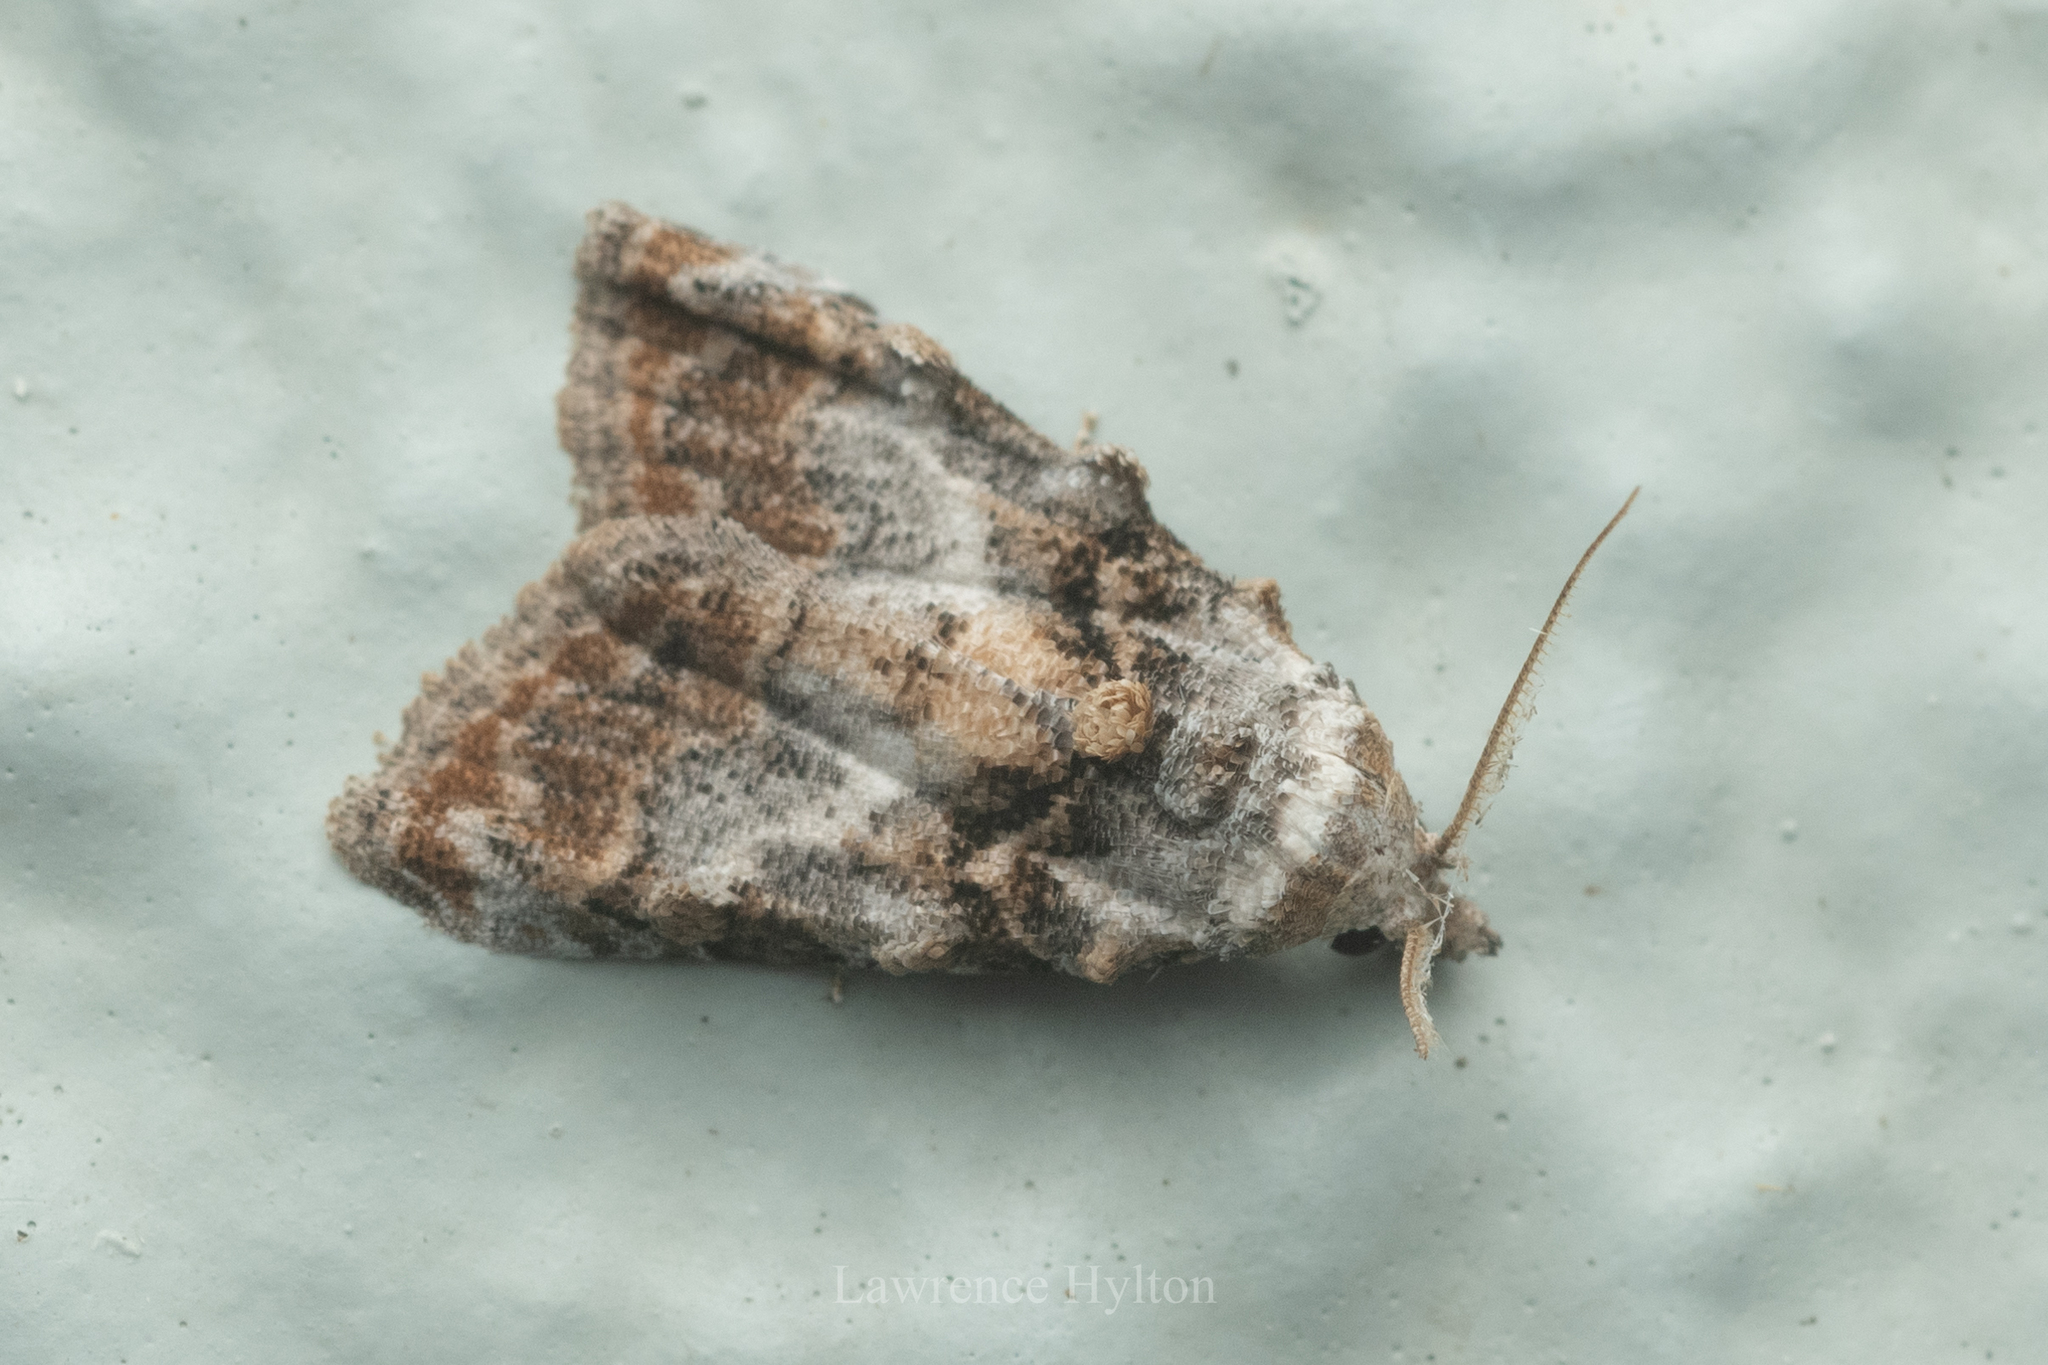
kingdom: Animalia
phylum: Arthropoda
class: Insecta
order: Lepidoptera
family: Nolidae
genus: Nola
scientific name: Nola kanshireiensis
